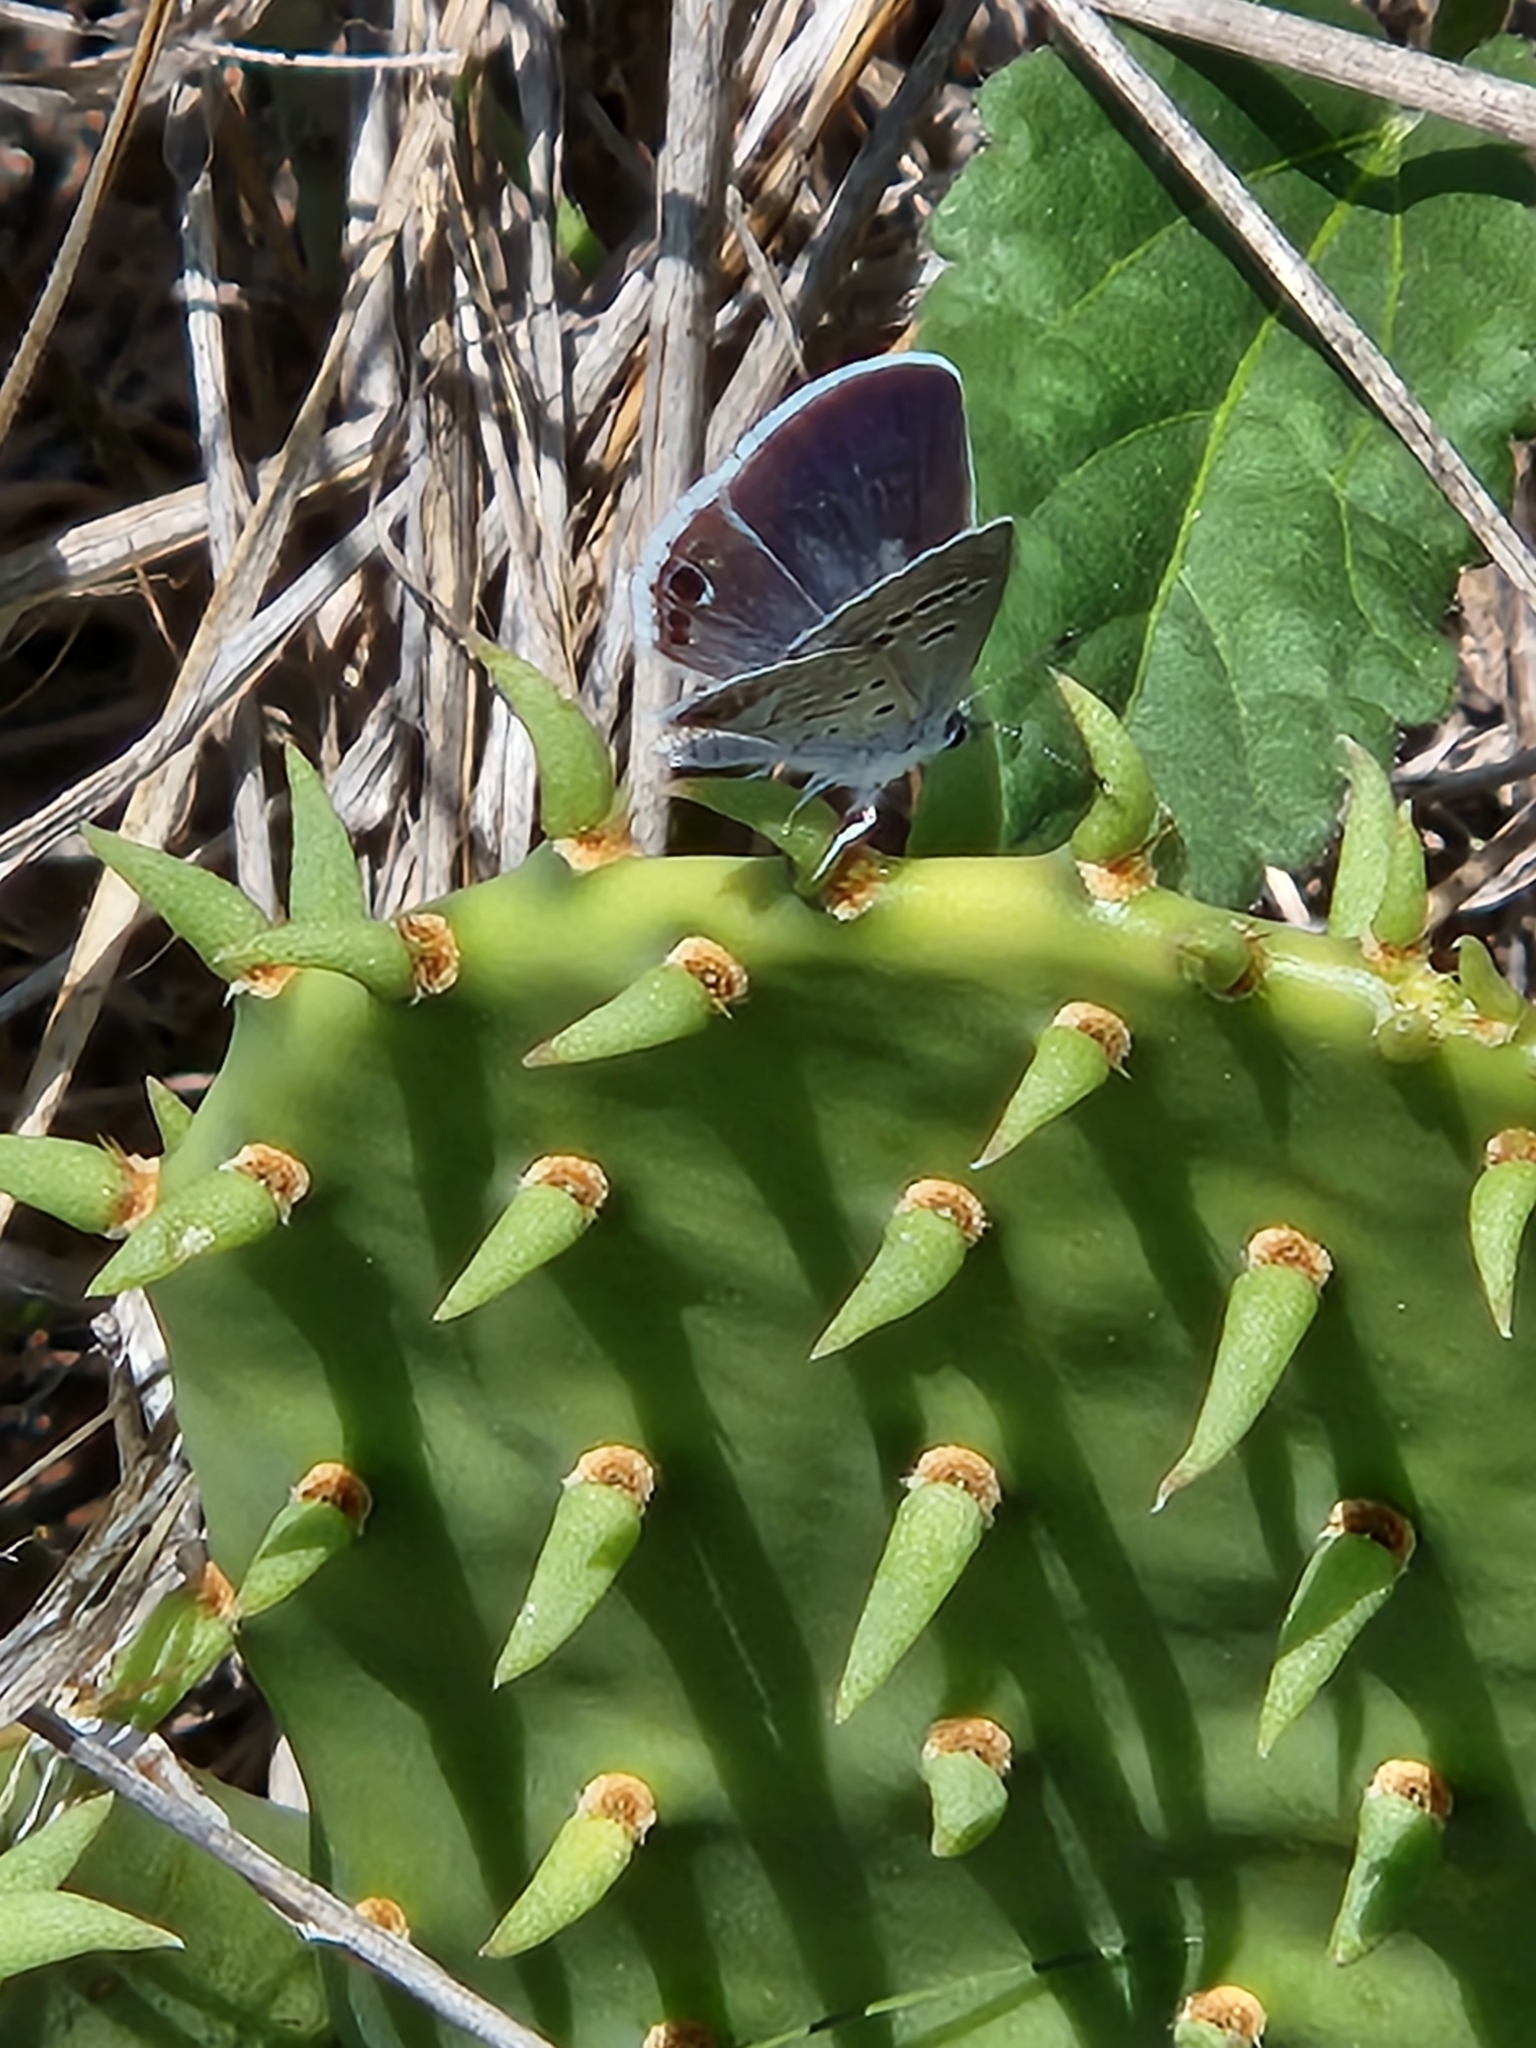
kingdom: Animalia
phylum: Arthropoda
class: Insecta
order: Lepidoptera
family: Lycaenidae
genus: Echinargus
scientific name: Echinargus isola
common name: Reakirt's blue
